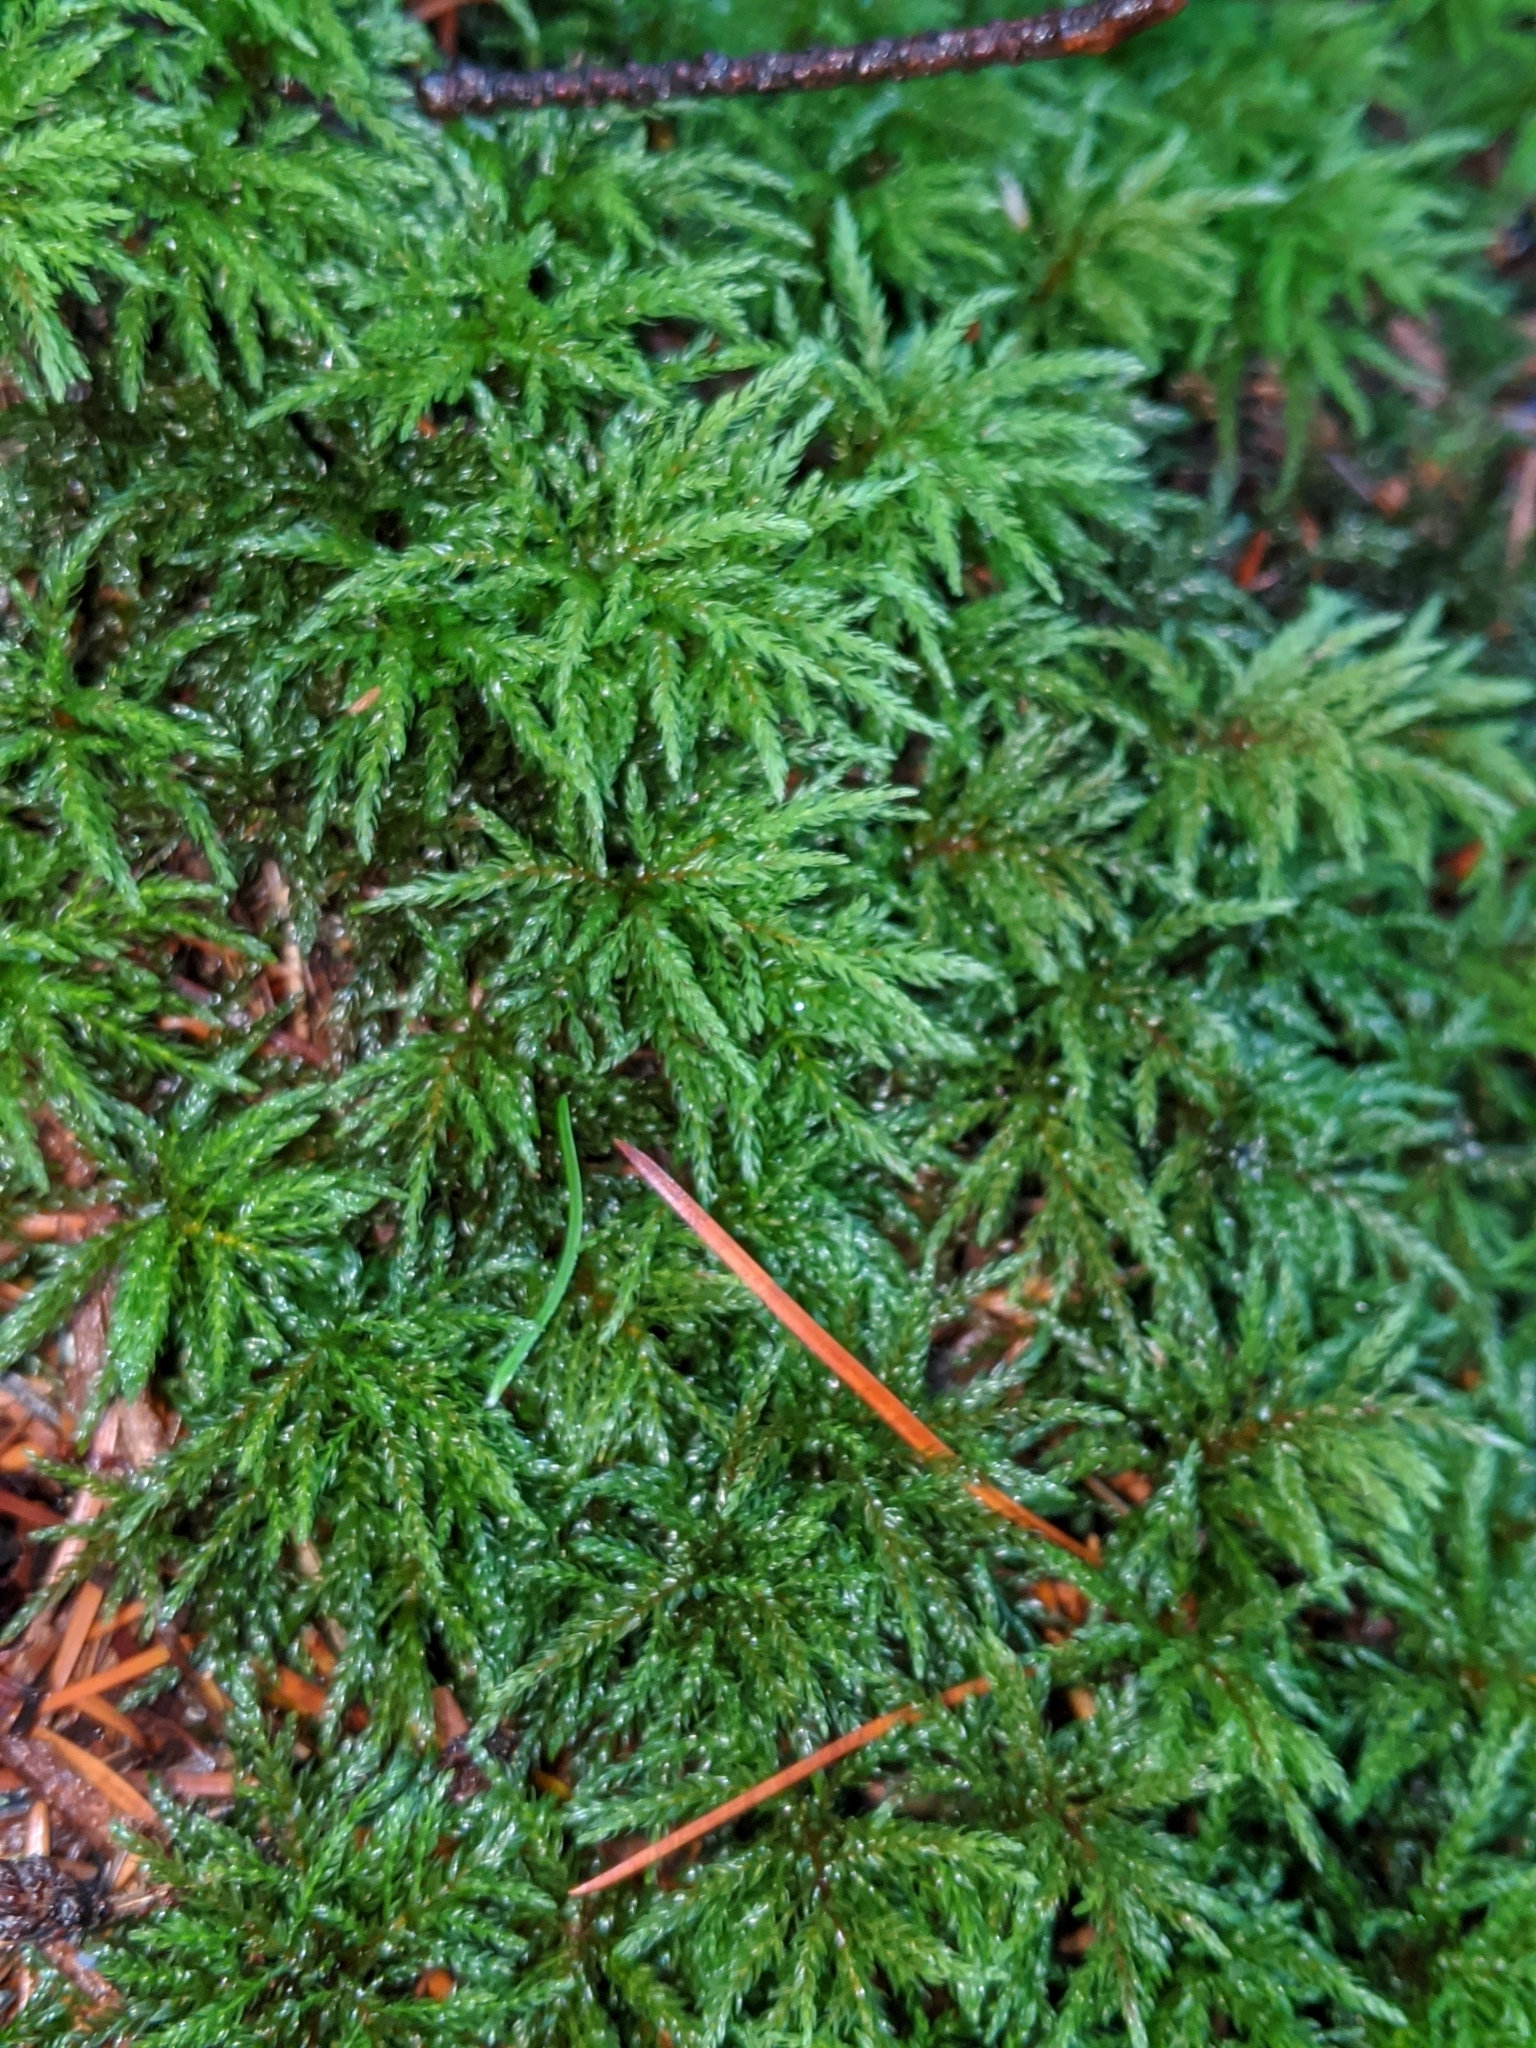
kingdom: Plantae
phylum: Bryophyta
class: Bryopsida
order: Bryales
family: Mniaceae
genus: Leucolepis
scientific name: Leucolepis acanthoneura
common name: Leucolepis umbrella moss
